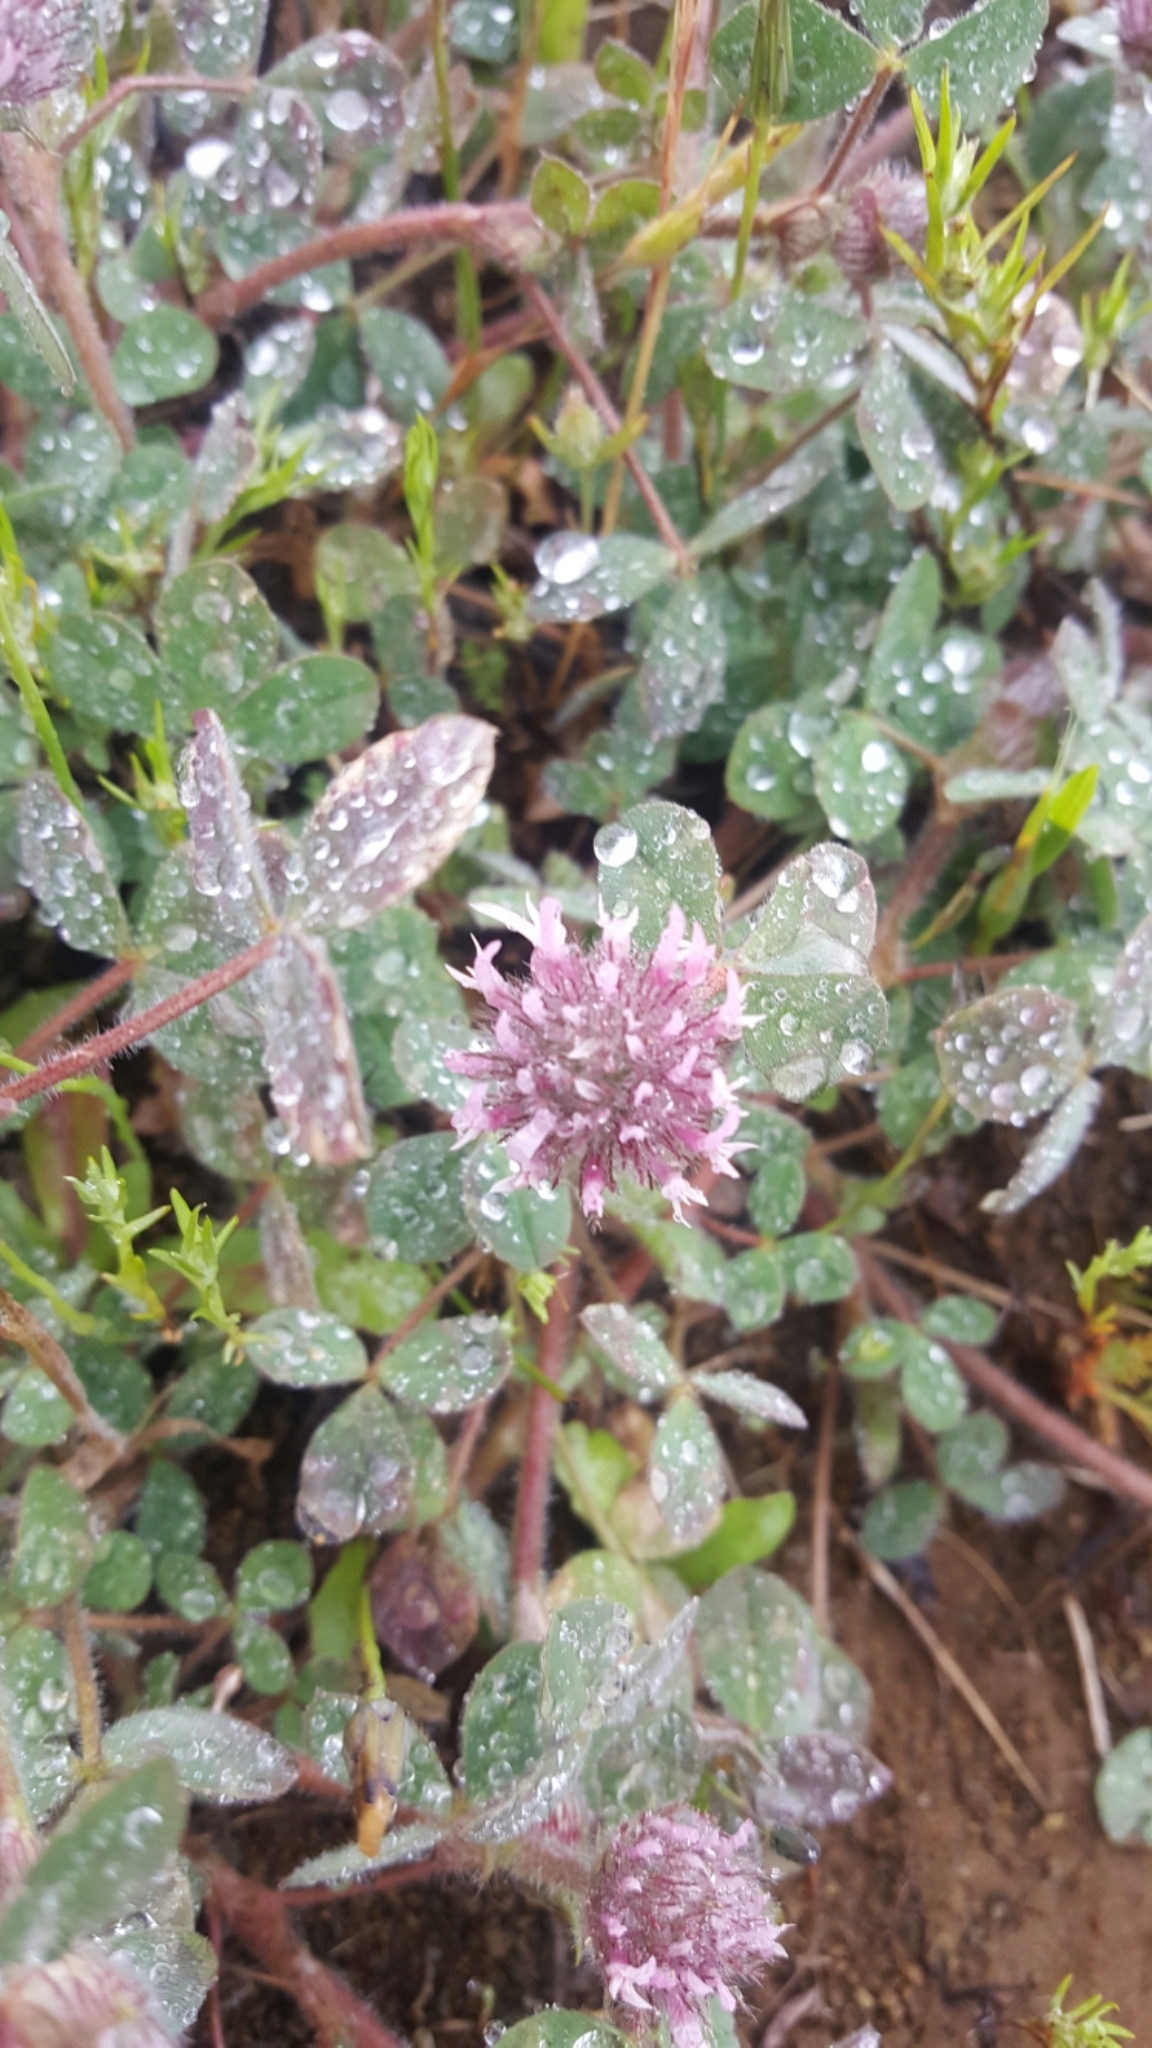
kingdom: Plantae
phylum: Tracheophyta
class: Magnoliopsida
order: Fabales
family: Fabaceae
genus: Trifolium
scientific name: Trifolium hirtum
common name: Rose clover
